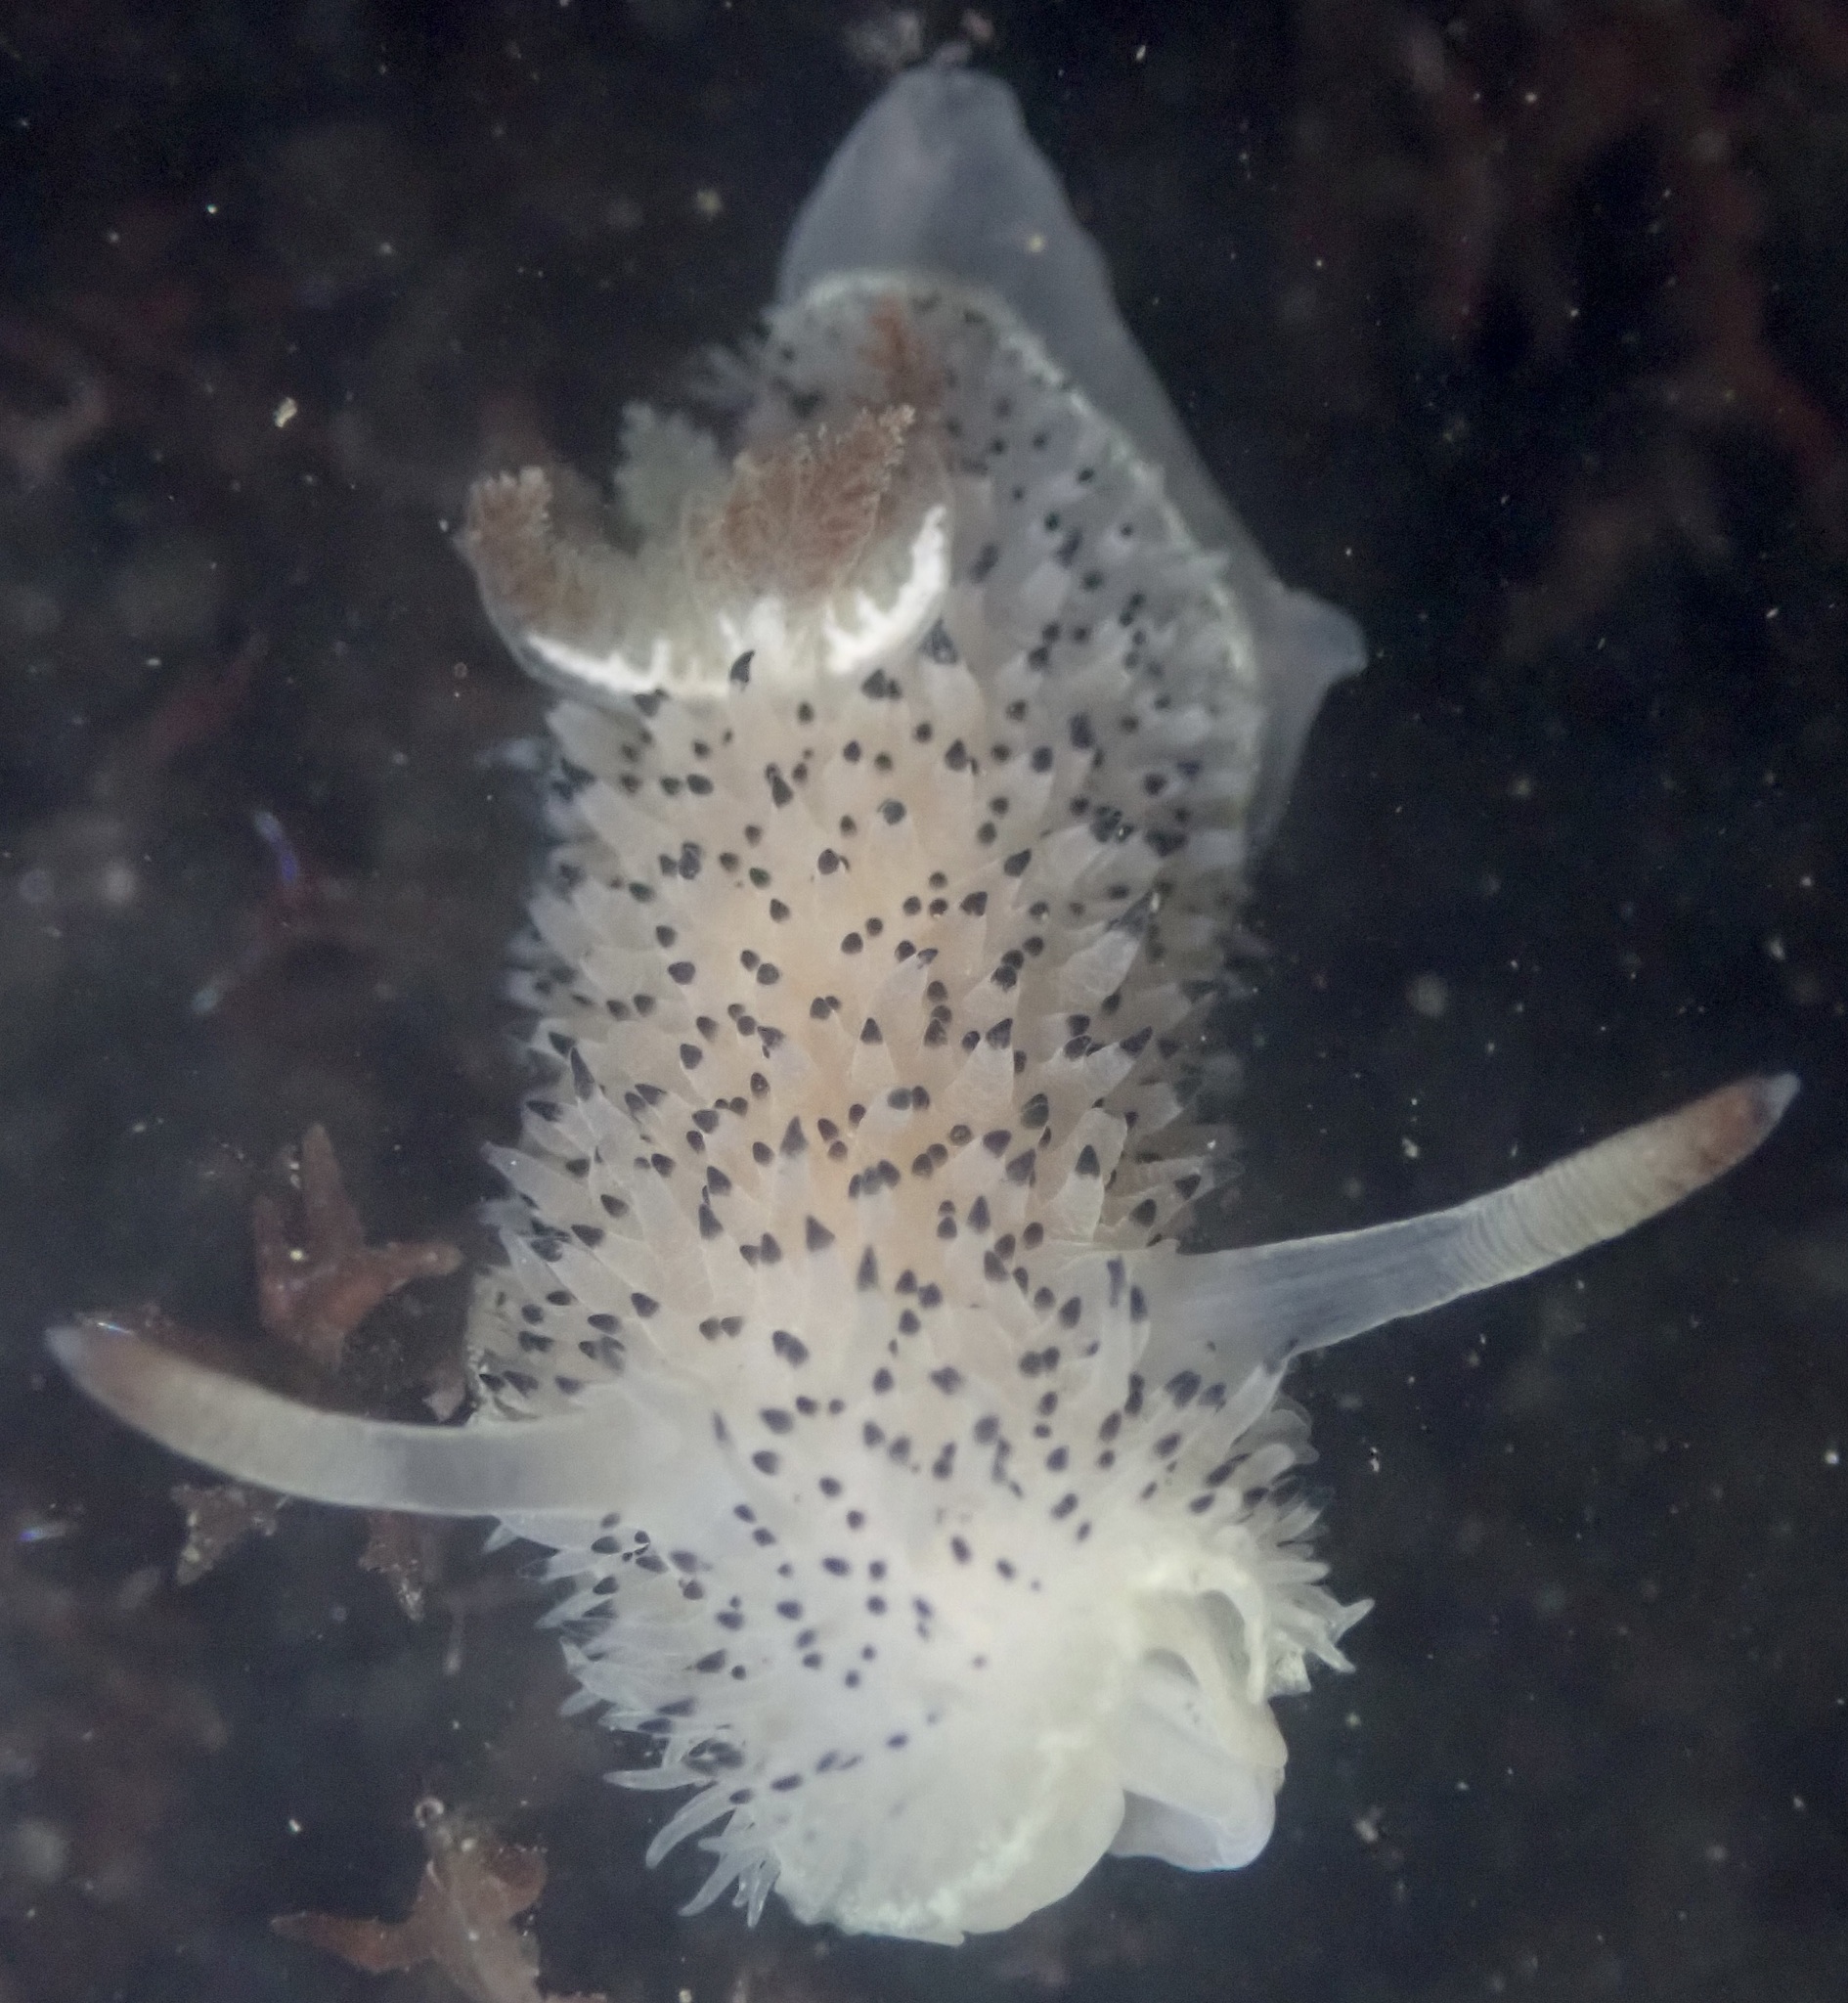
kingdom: Animalia
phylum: Mollusca
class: Gastropoda
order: Nudibranchia
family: Onchidorididae
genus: Acanthodoris
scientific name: Acanthodoris rhodoceras
